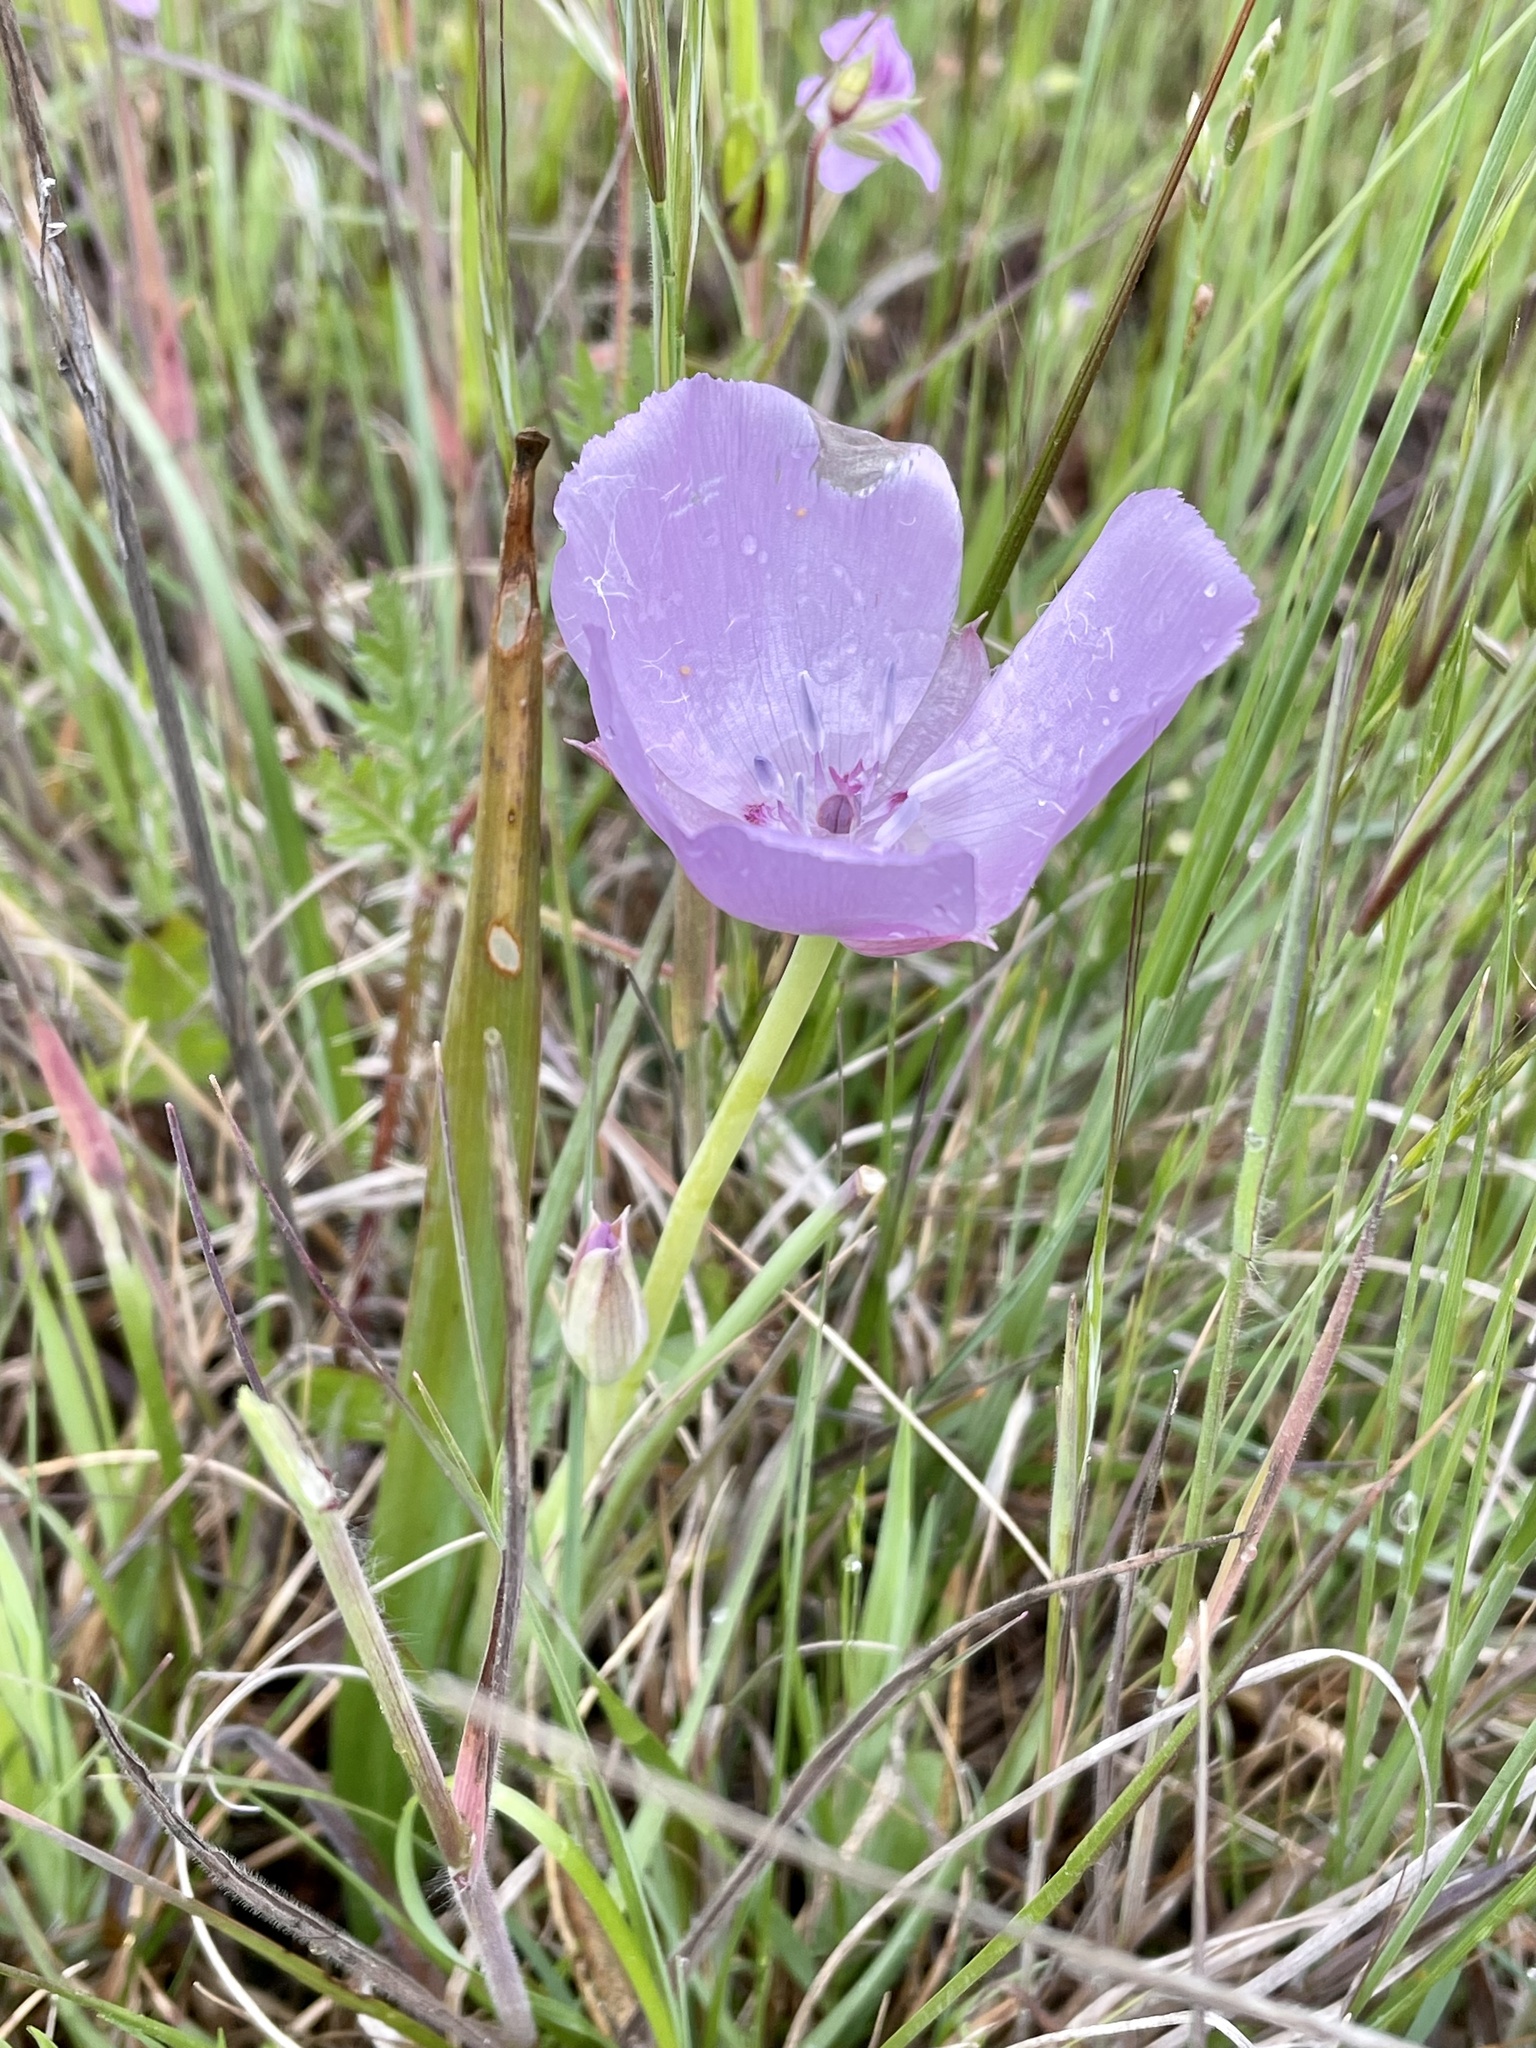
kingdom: Plantae
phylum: Tracheophyta
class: Liliopsida
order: Liliales
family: Liliaceae
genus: Calochortus
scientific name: Calochortus uniflorus
